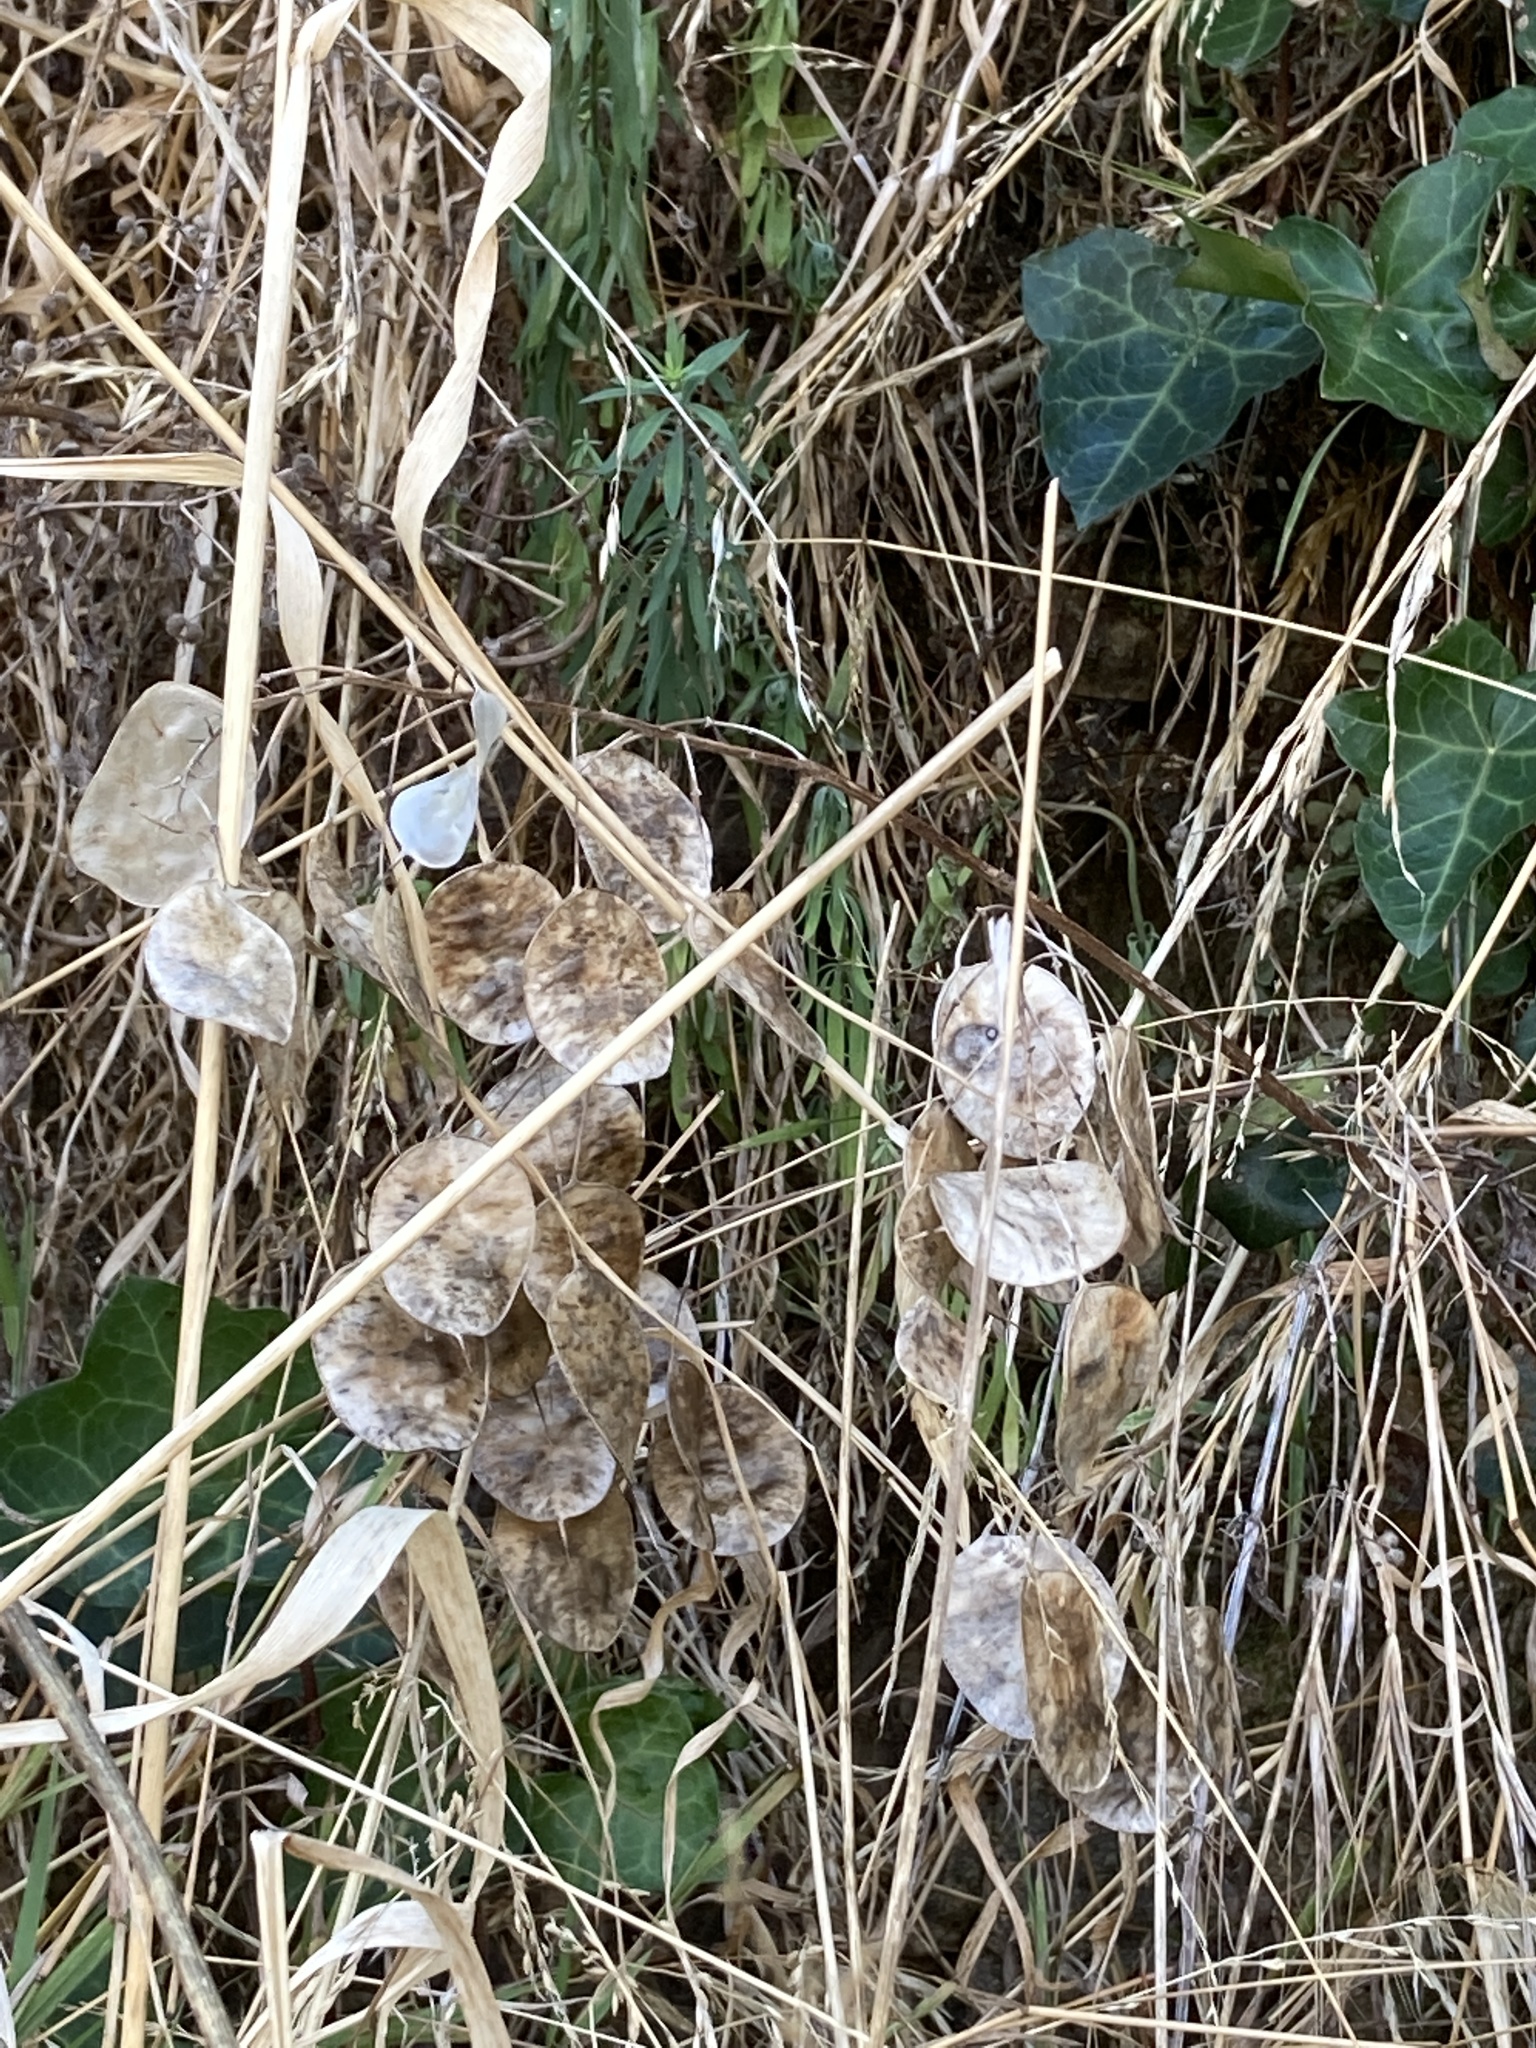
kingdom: Plantae
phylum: Tracheophyta
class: Magnoliopsida
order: Brassicales
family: Brassicaceae
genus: Lunaria
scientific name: Lunaria annua
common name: Honesty
